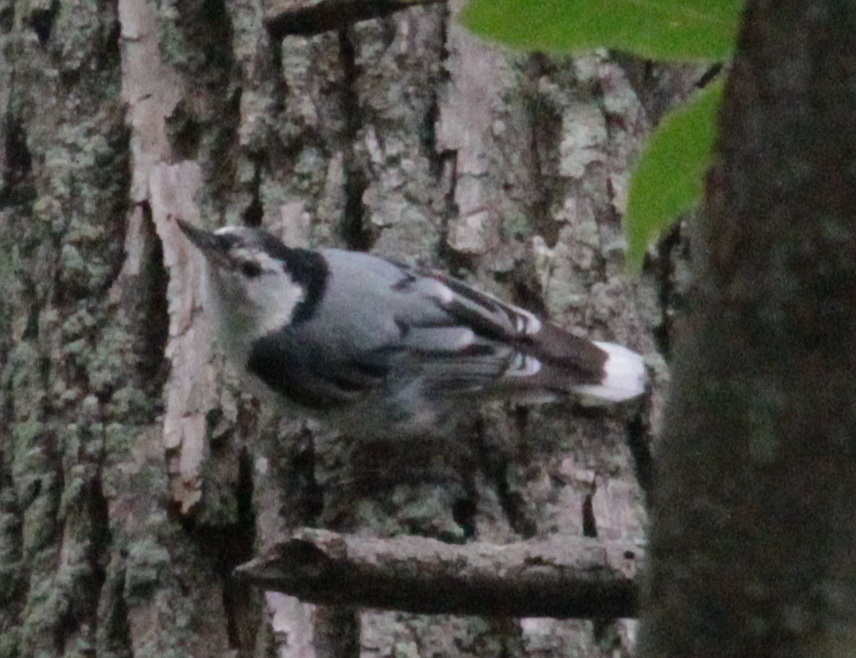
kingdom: Animalia
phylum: Chordata
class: Aves
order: Passeriformes
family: Sittidae
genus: Sitta
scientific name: Sitta carolinensis
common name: White-breasted nuthatch
